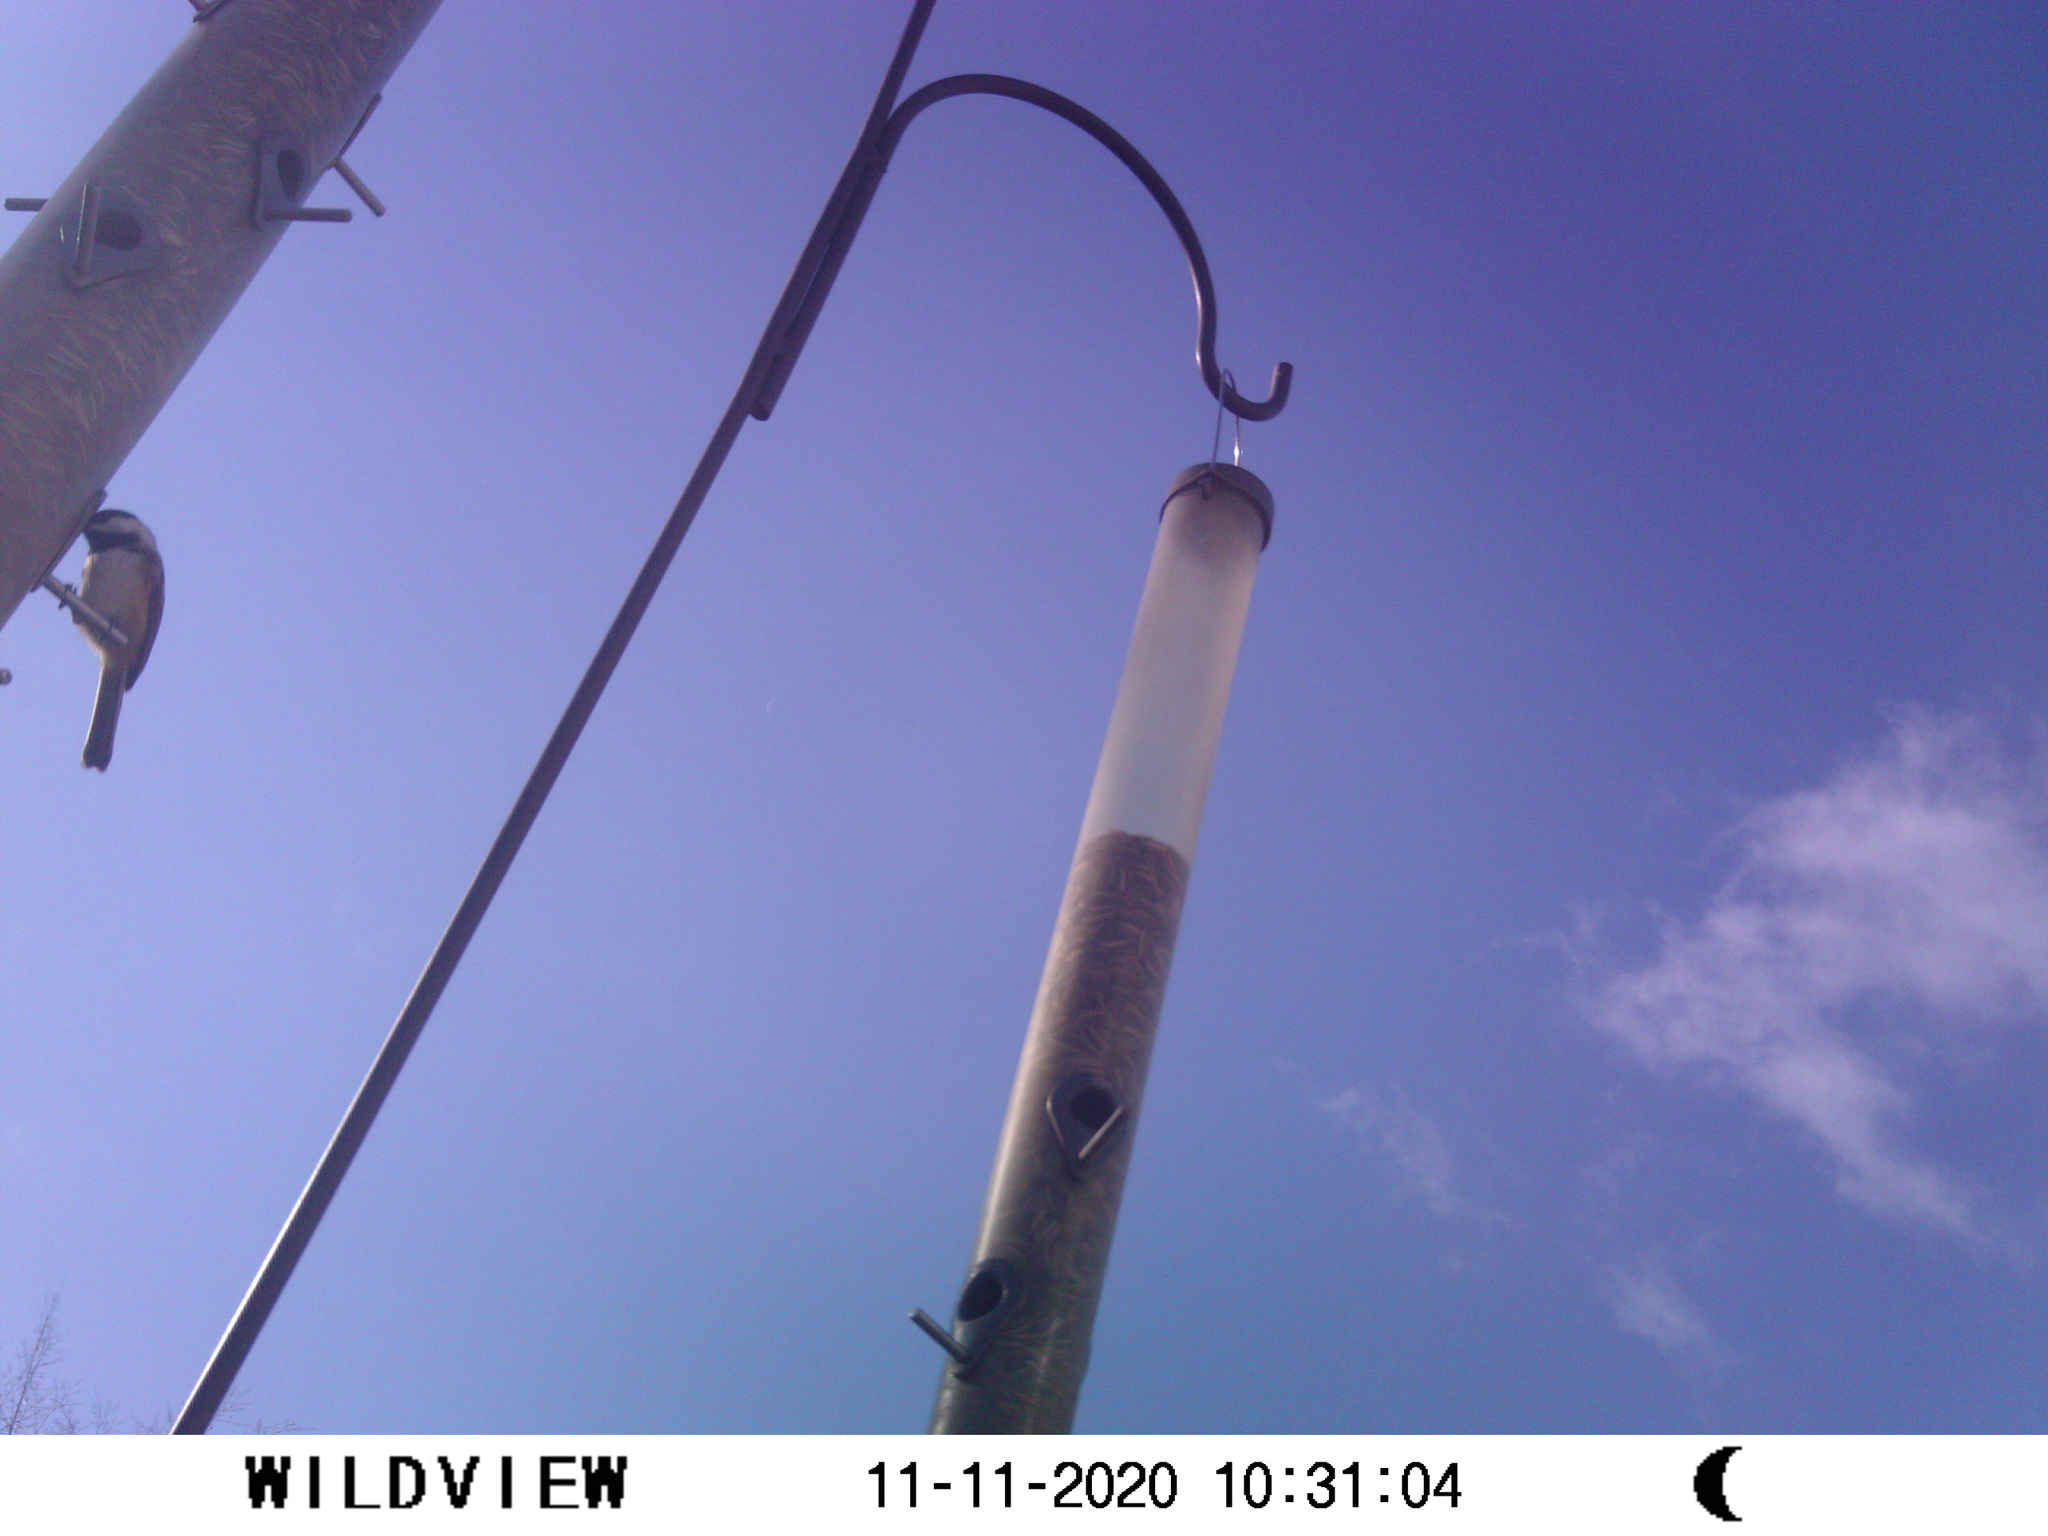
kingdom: Animalia
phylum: Chordata
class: Aves
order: Passeriformes
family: Paridae
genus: Poecile
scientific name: Poecile atricapillus
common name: Black-capped chickadee
